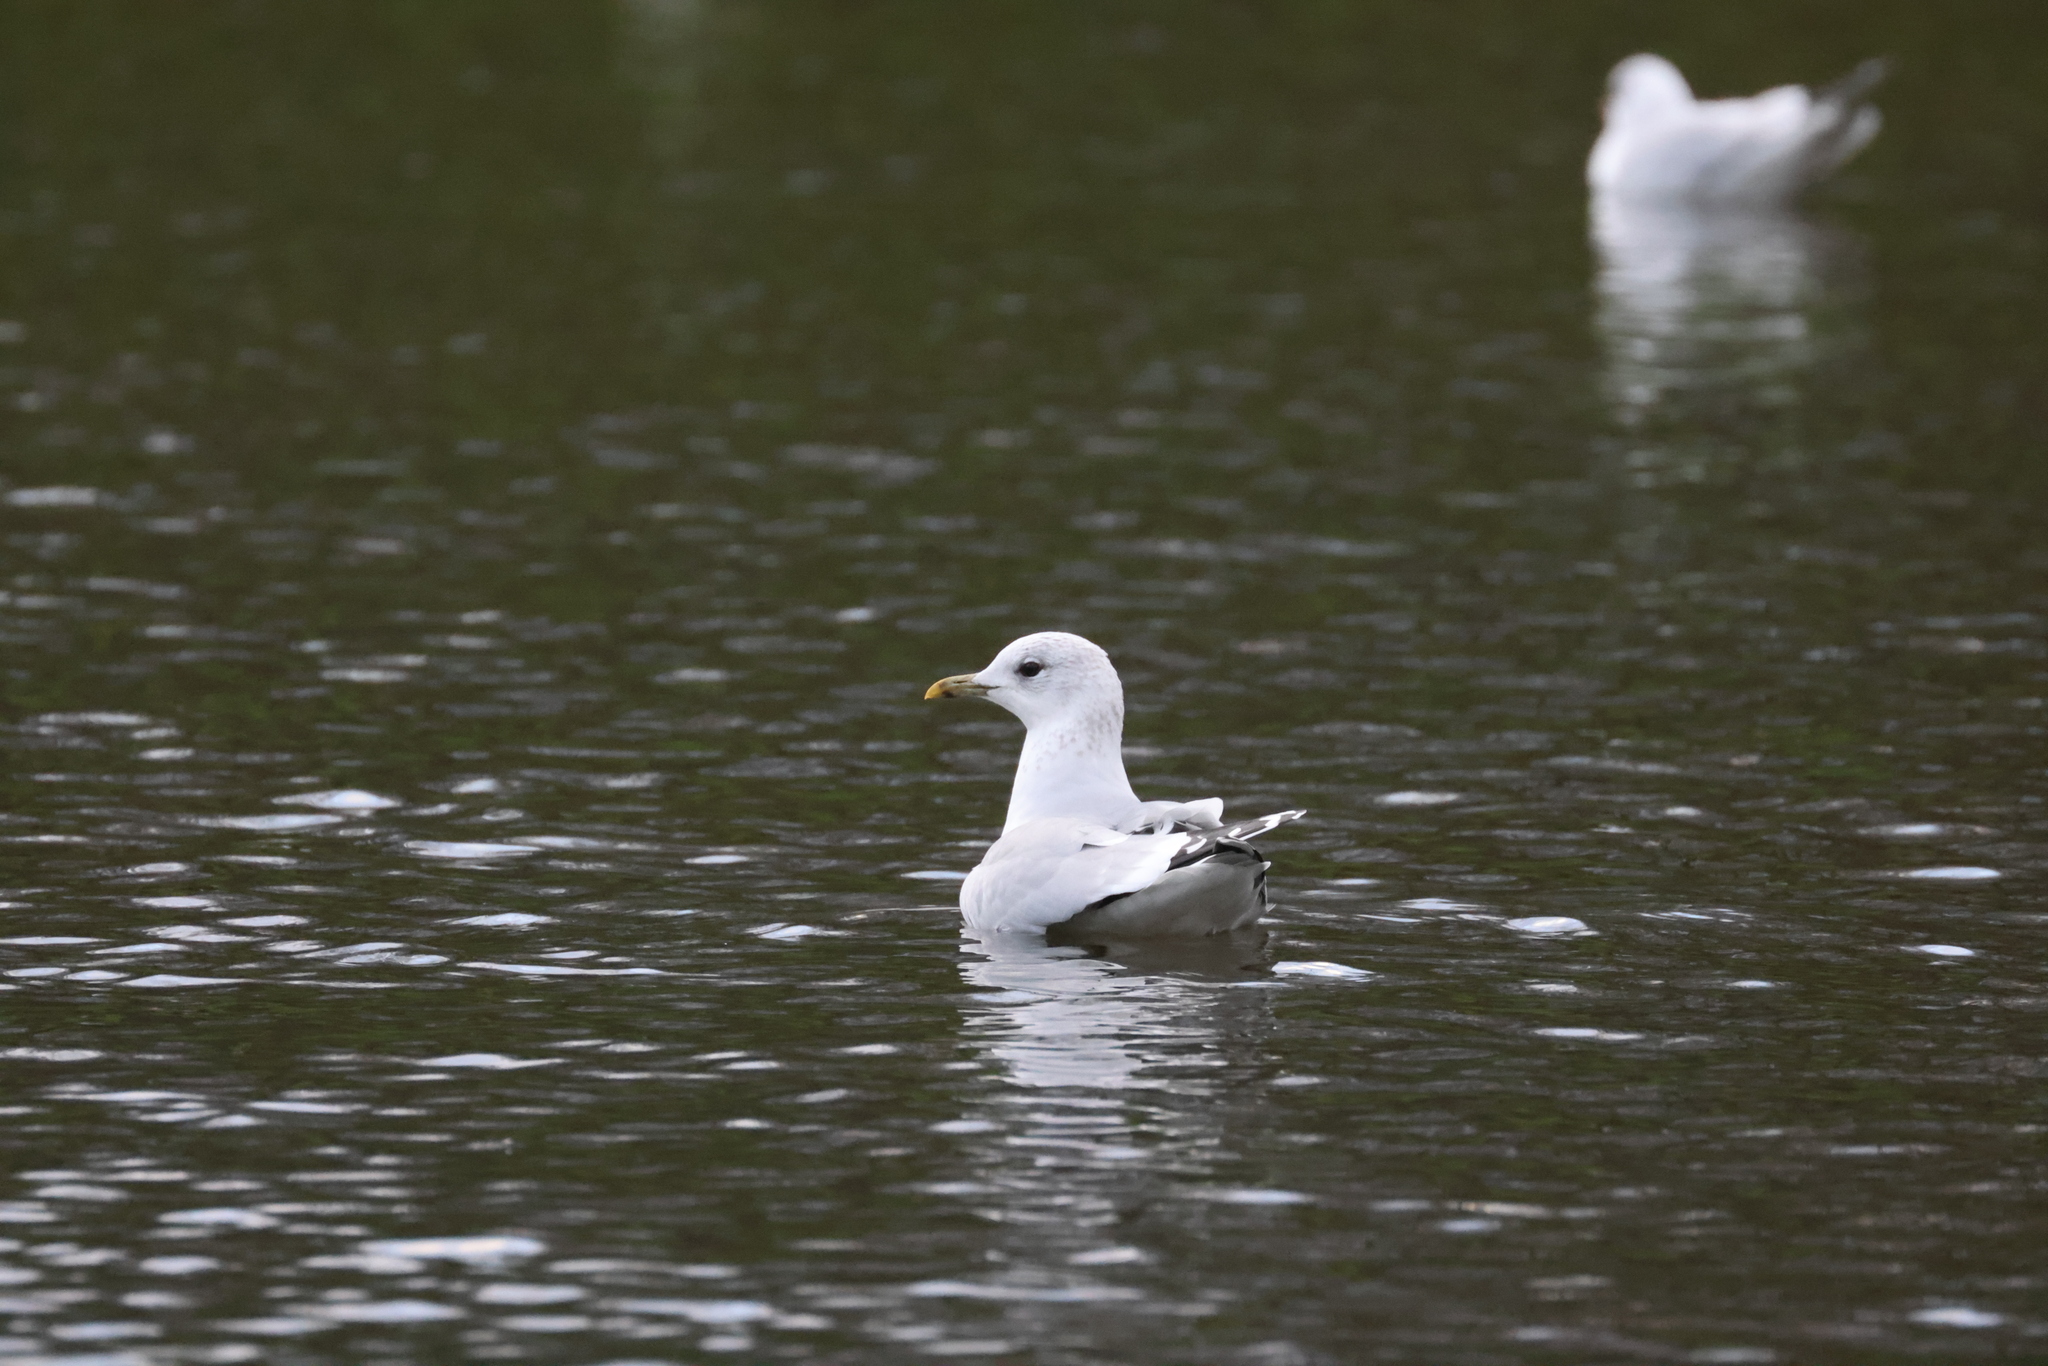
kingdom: Animalia
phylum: Chordata
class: Aves
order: Charadriiformes
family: Laridae
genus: Larus
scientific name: Larus canus
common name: Mew gull
